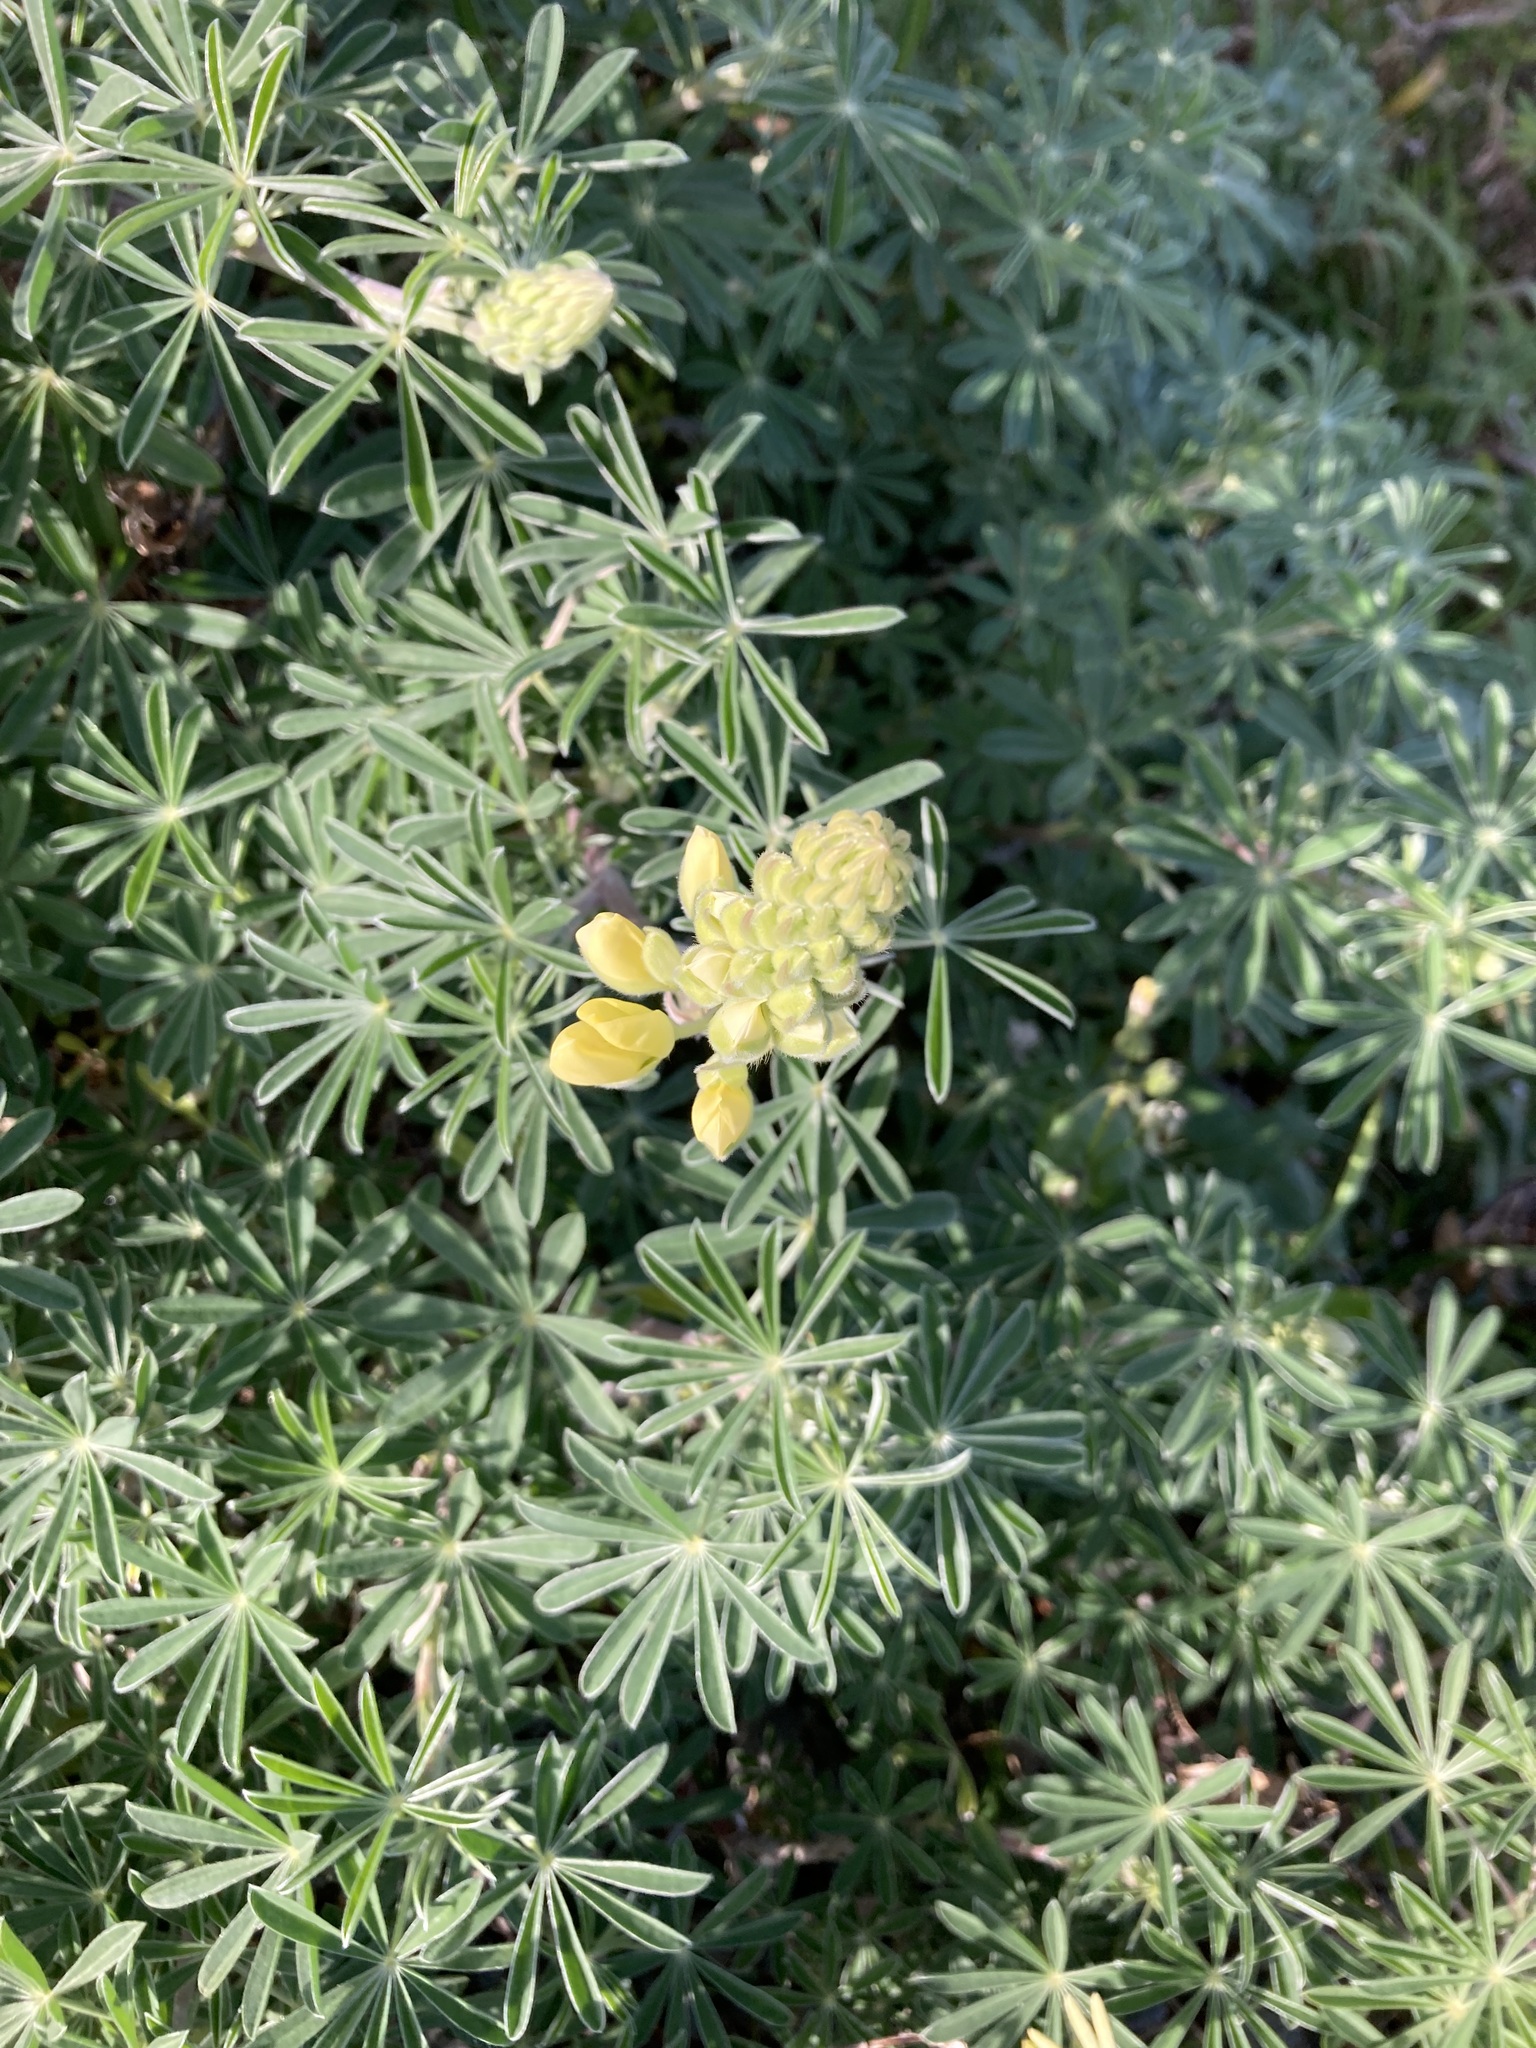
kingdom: Plantae
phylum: Tracheophyta
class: Magnoliopsida
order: Fabales
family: Fabaceae
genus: Lupinus
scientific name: Lupinus arboreus
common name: Yellow bush lupine
